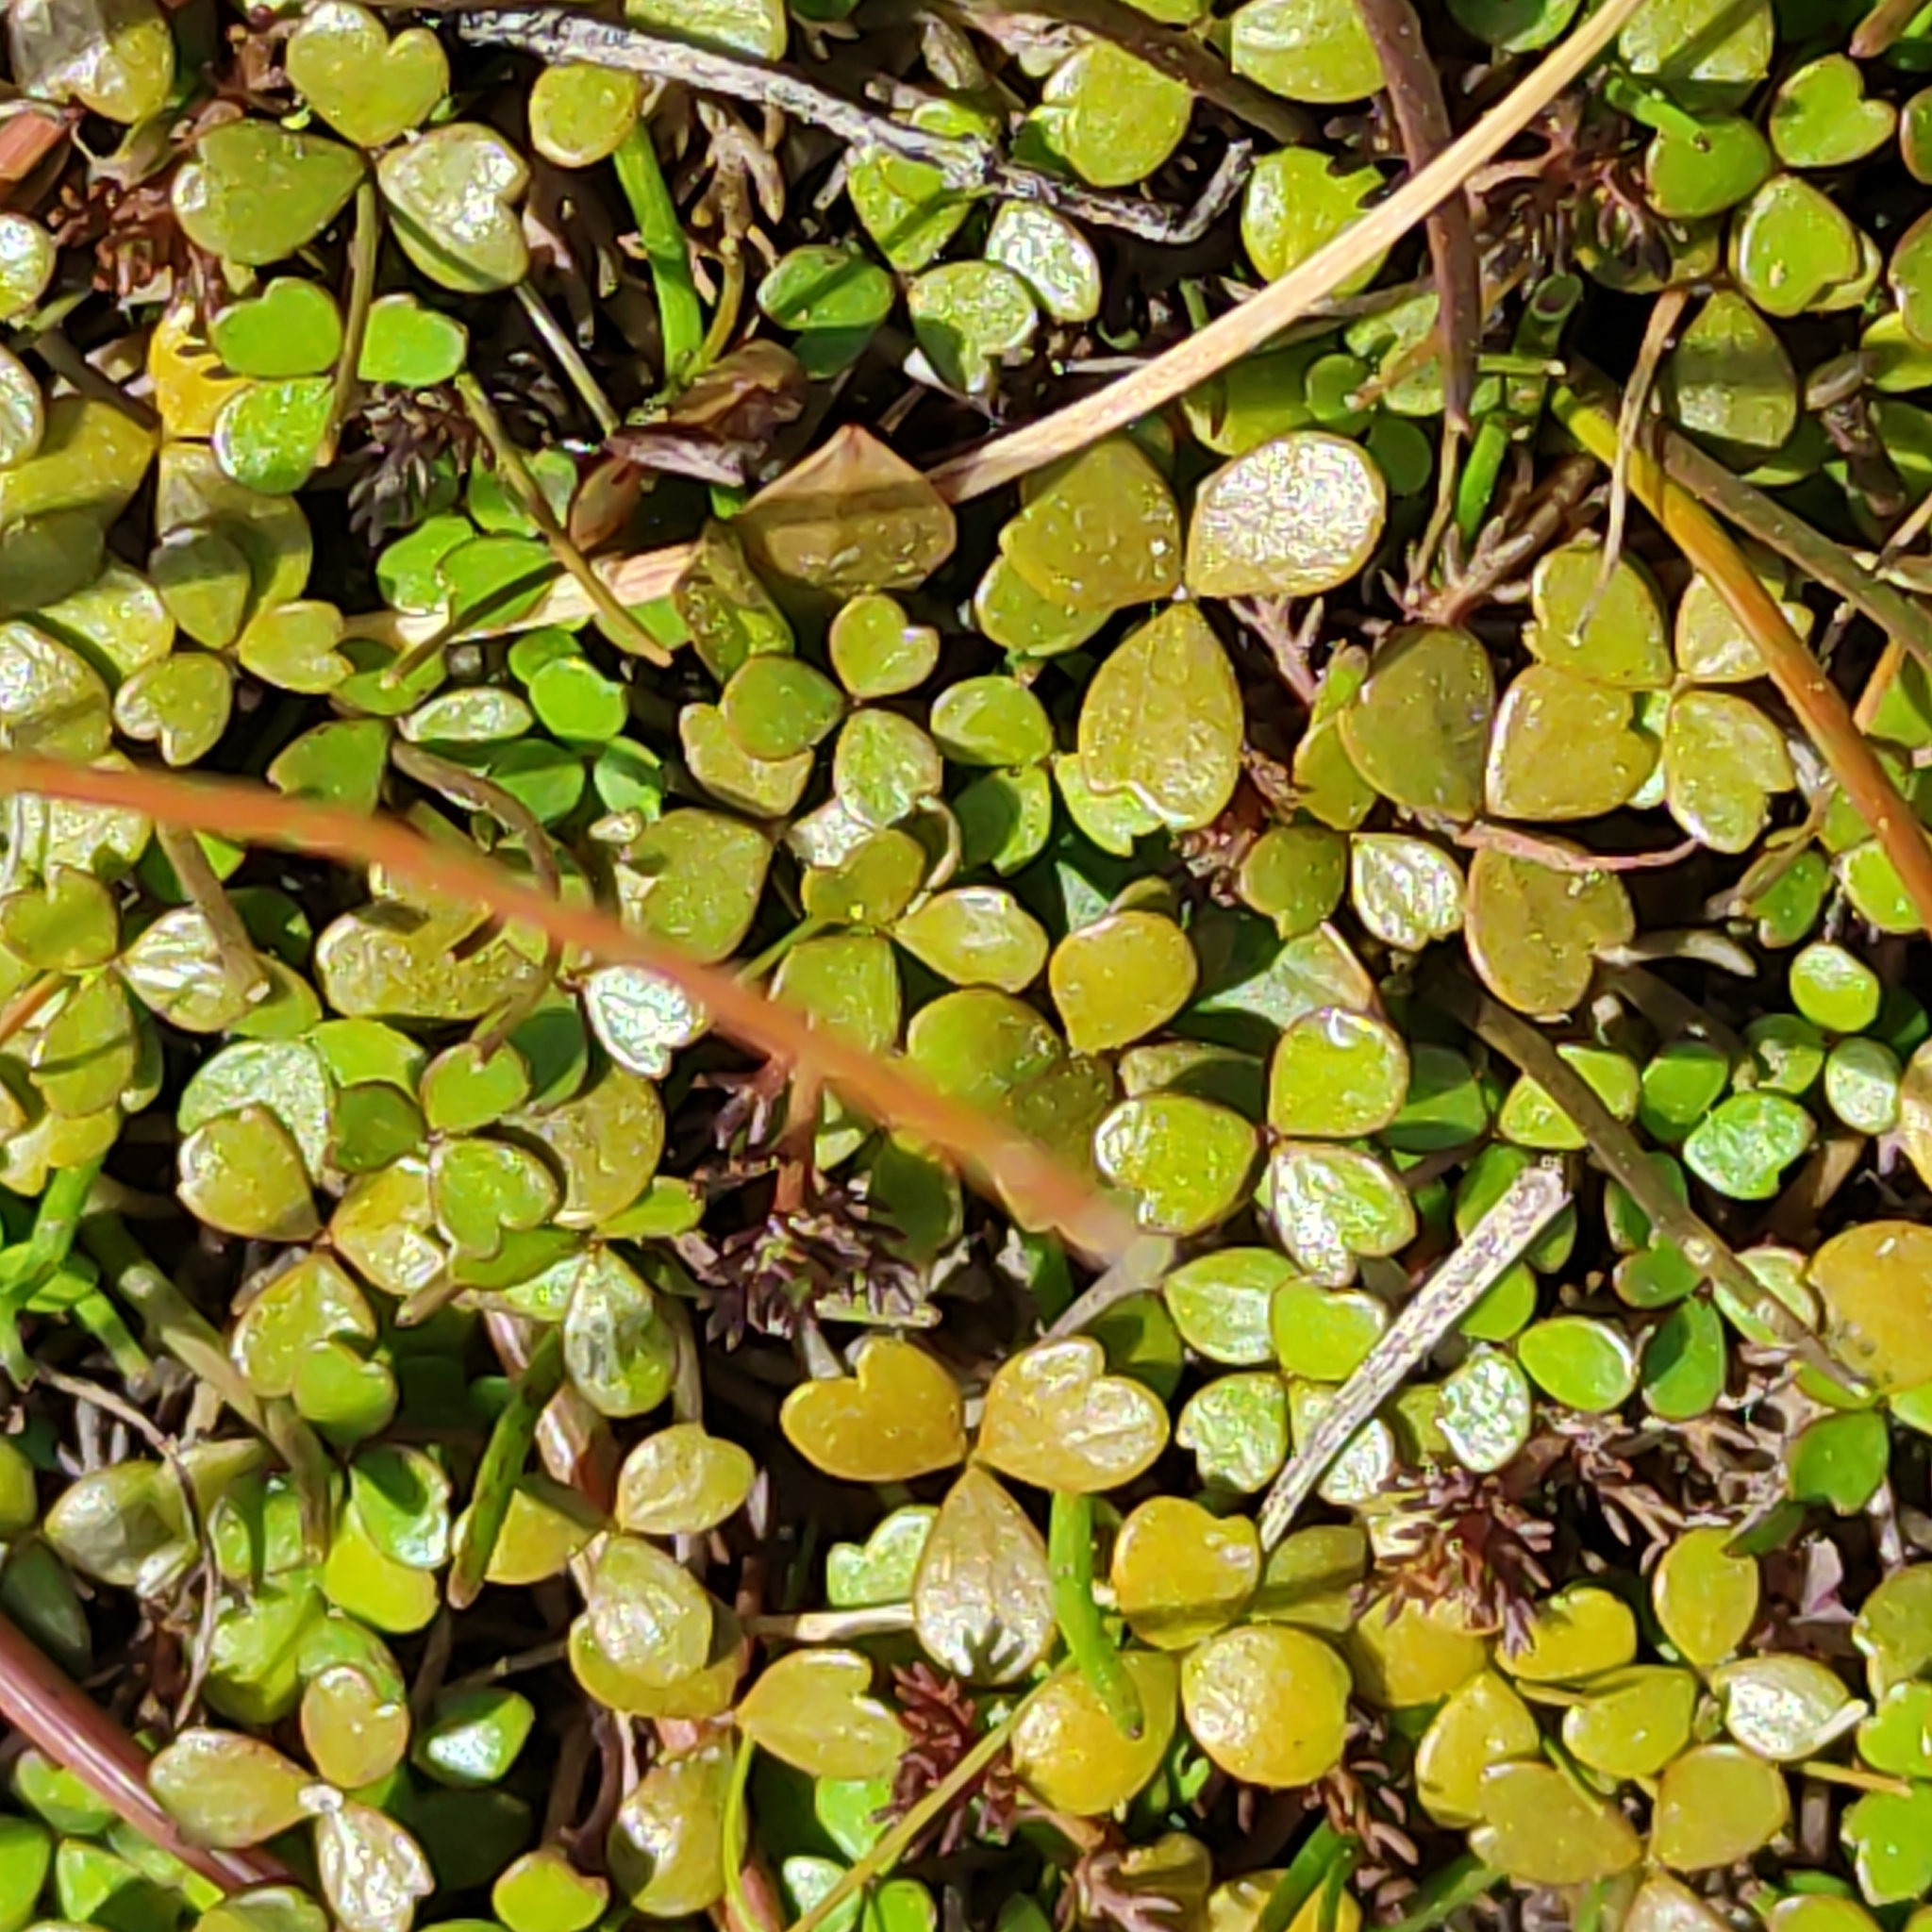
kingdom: Plantae
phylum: Tracheophyta
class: Magnoliopsida
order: Apiales
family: Araliaceae
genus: Hydrocotyle
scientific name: Hydrocotyle sulcata
